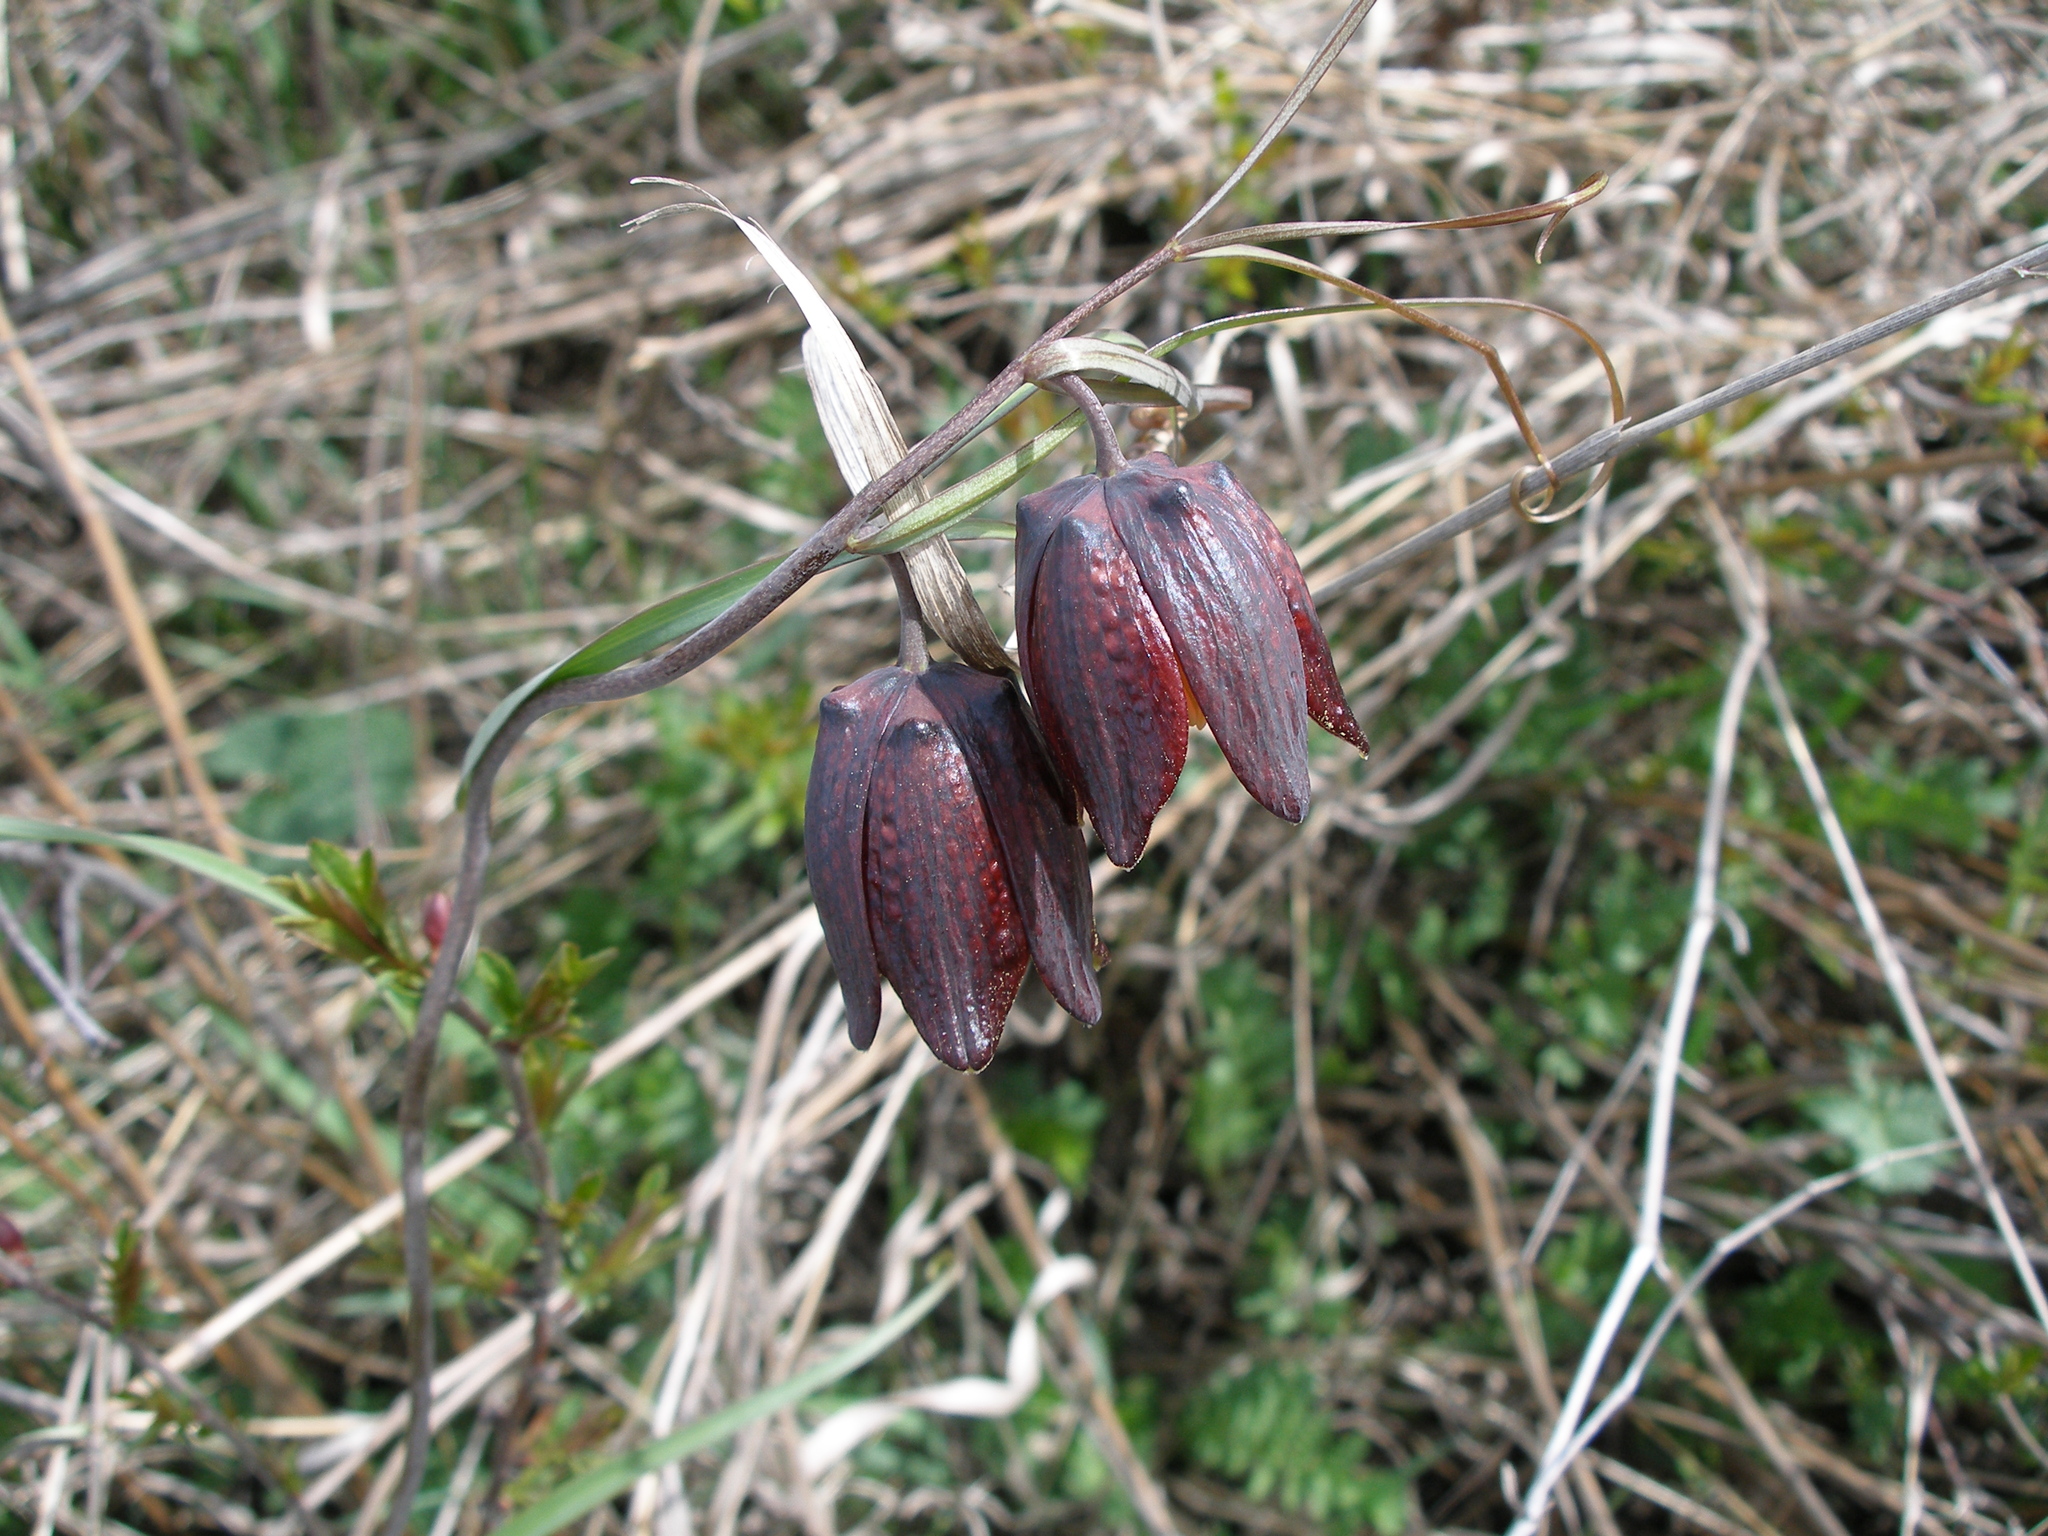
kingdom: Plantae
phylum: Tracheophyta
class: Liliopsida
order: Liliales
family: Liliaceae
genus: Fritillaria
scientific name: Fritillaria ruthenica
